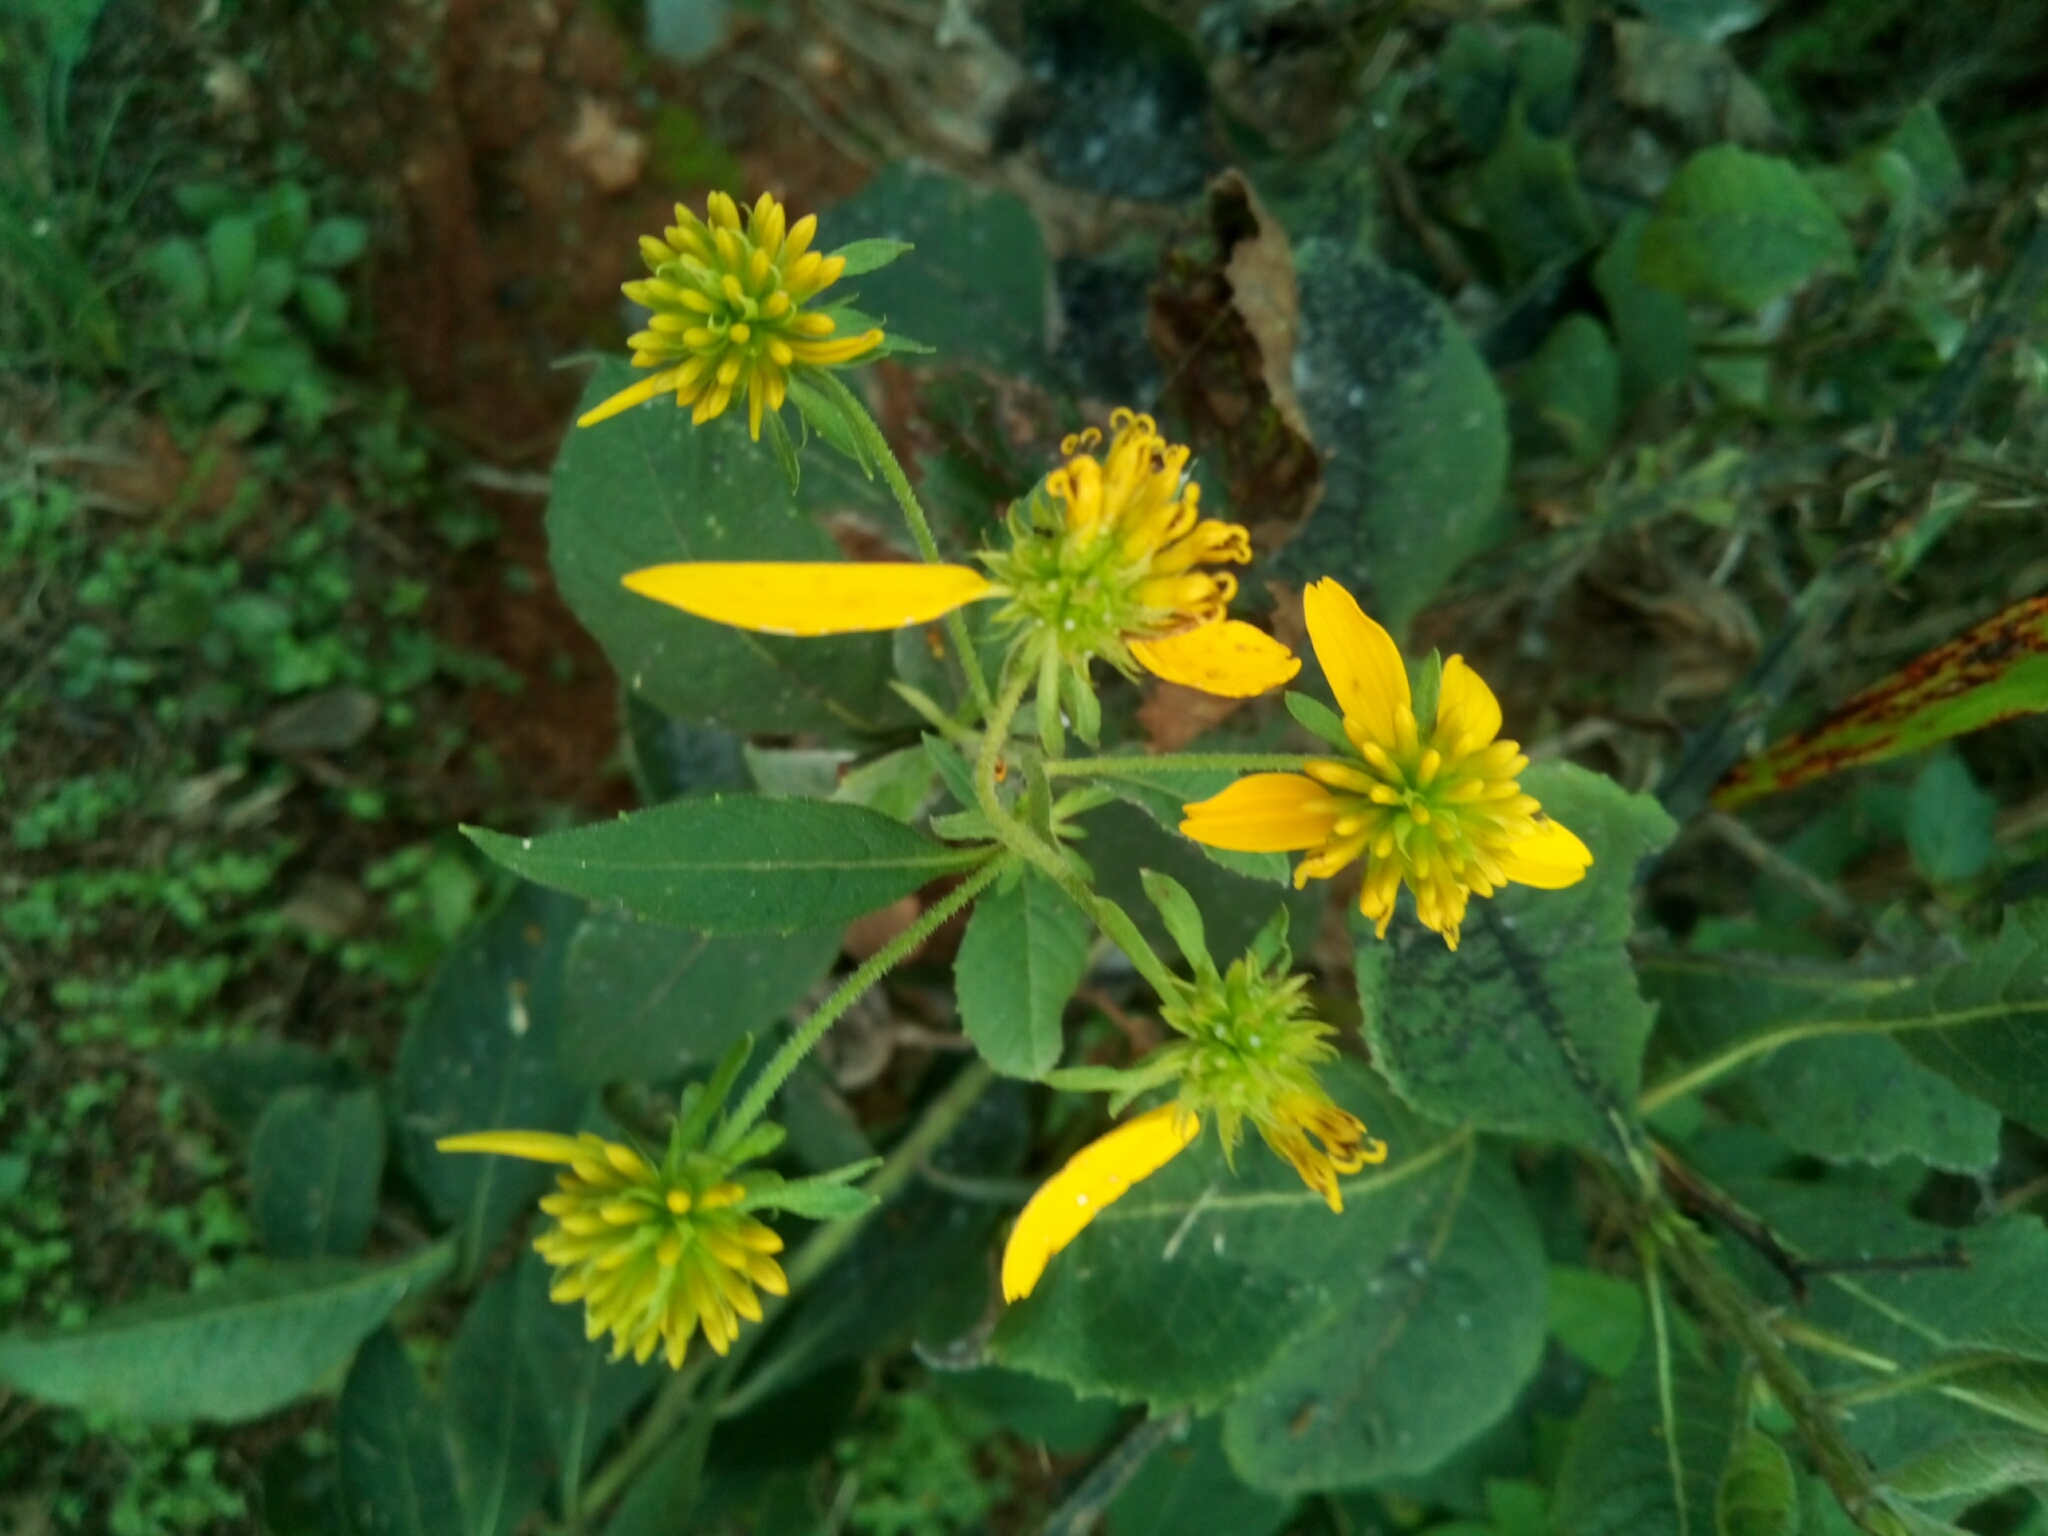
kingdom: Plantae
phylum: Tracheophyta
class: Magnoliopsida
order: Asterales
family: Asteraceae
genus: Verbesina
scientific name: Verbesina alternifolia
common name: Wingstem
